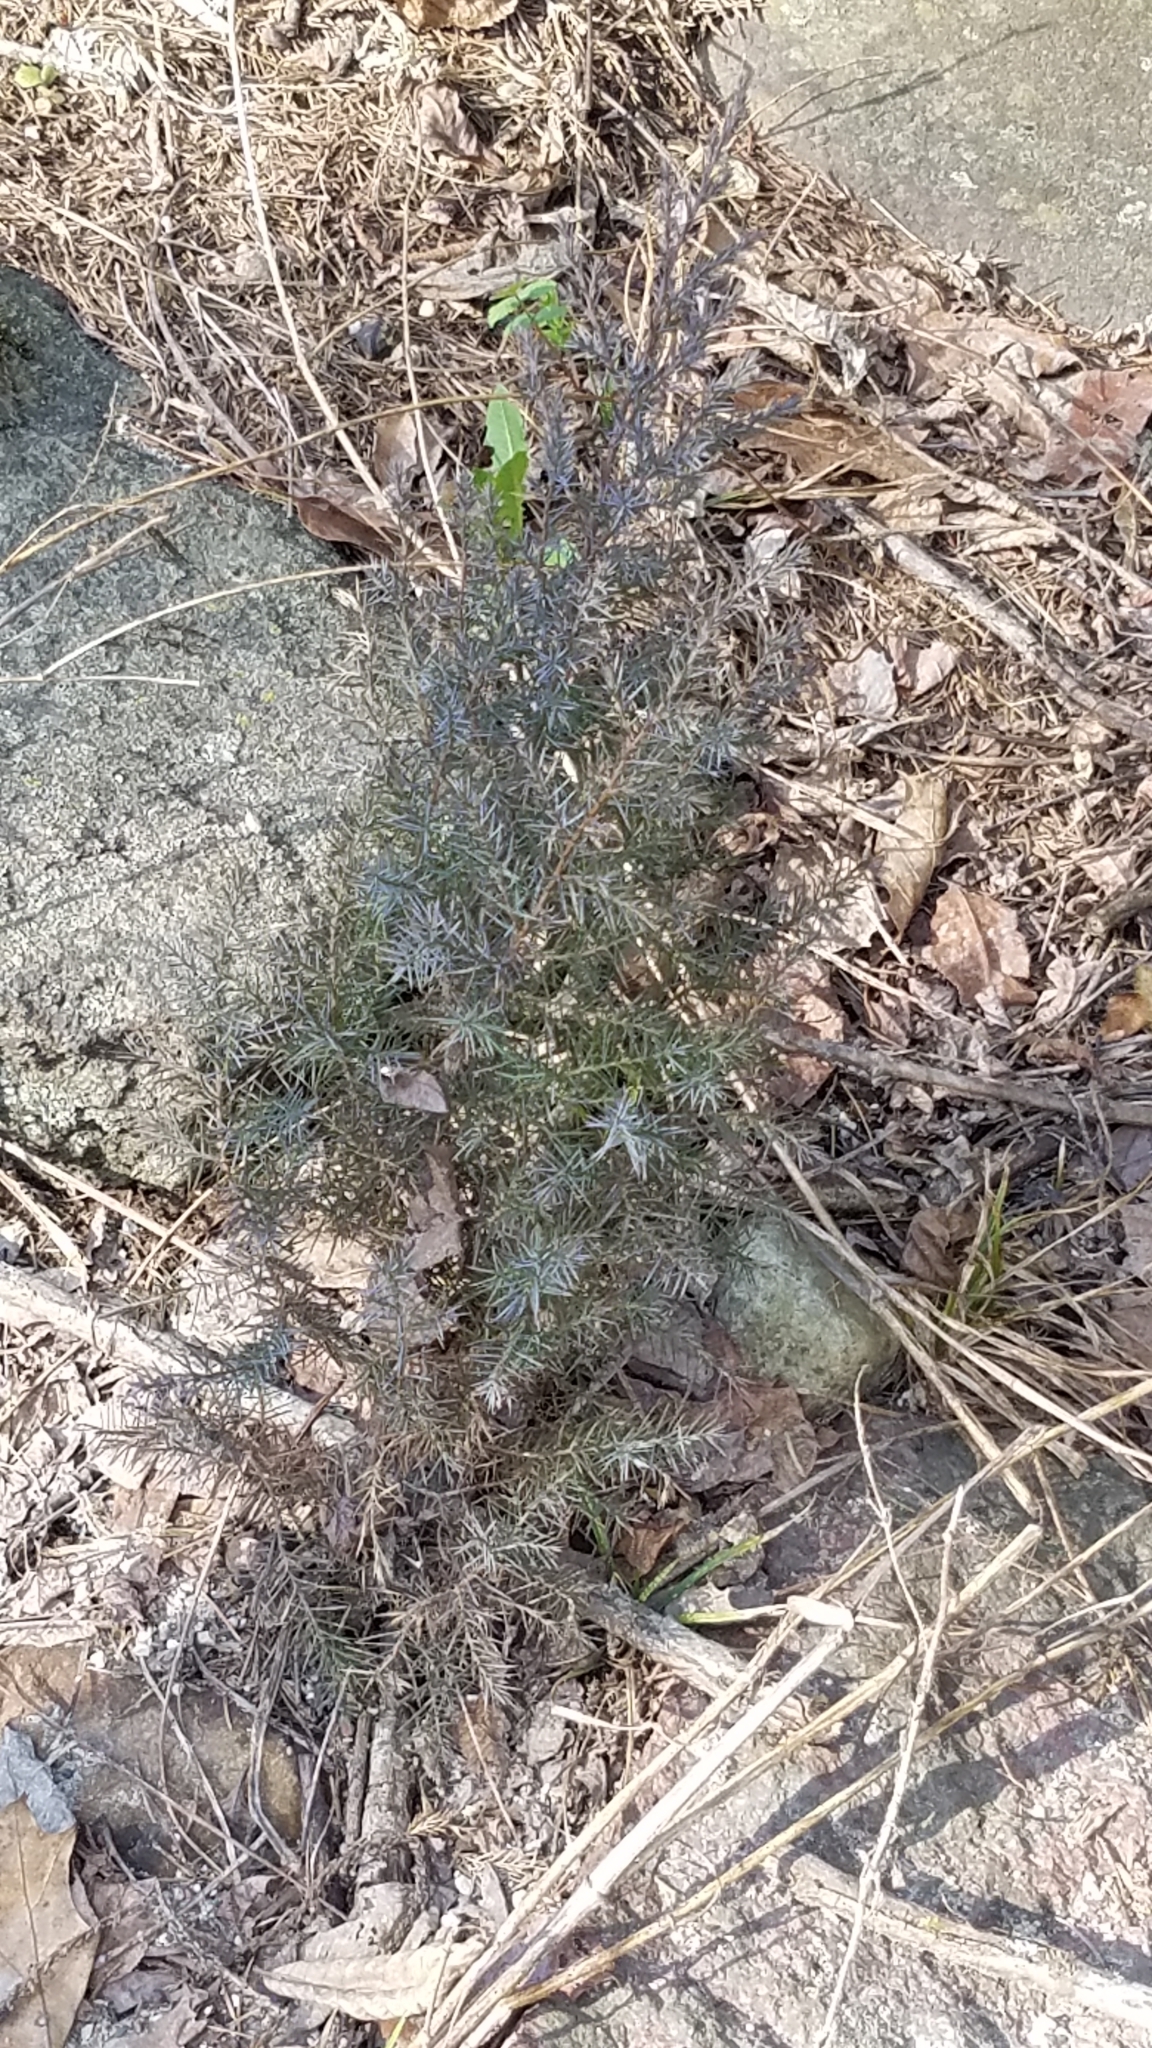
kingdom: Plantae
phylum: Tracheophyta
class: Pinopsida
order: Pinales
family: Cupressaceae
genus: Juniperus
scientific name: Juniperus virginiana
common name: Red juniper
